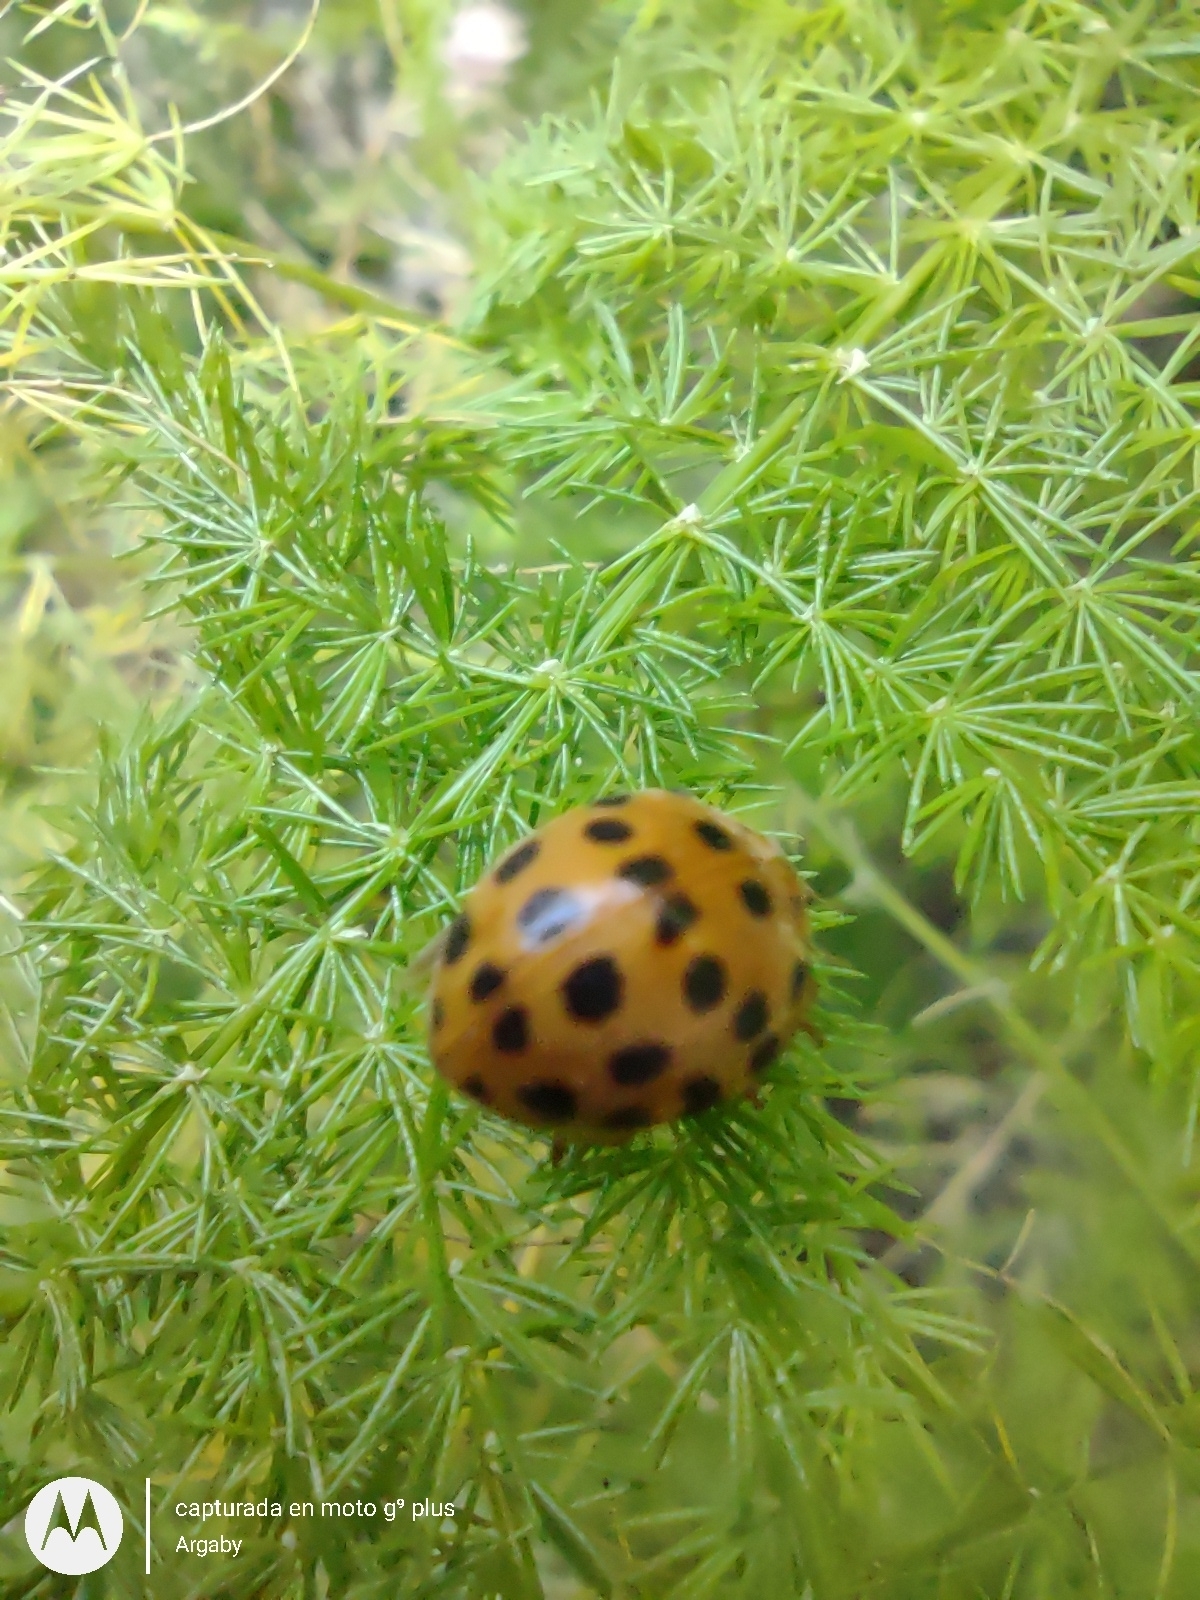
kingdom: Animalia
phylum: Arthropoda
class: Insecta
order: Coleoptera
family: Coccinellidae
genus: Henosepilachna
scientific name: Henosepilachna vigintioctopunctata
